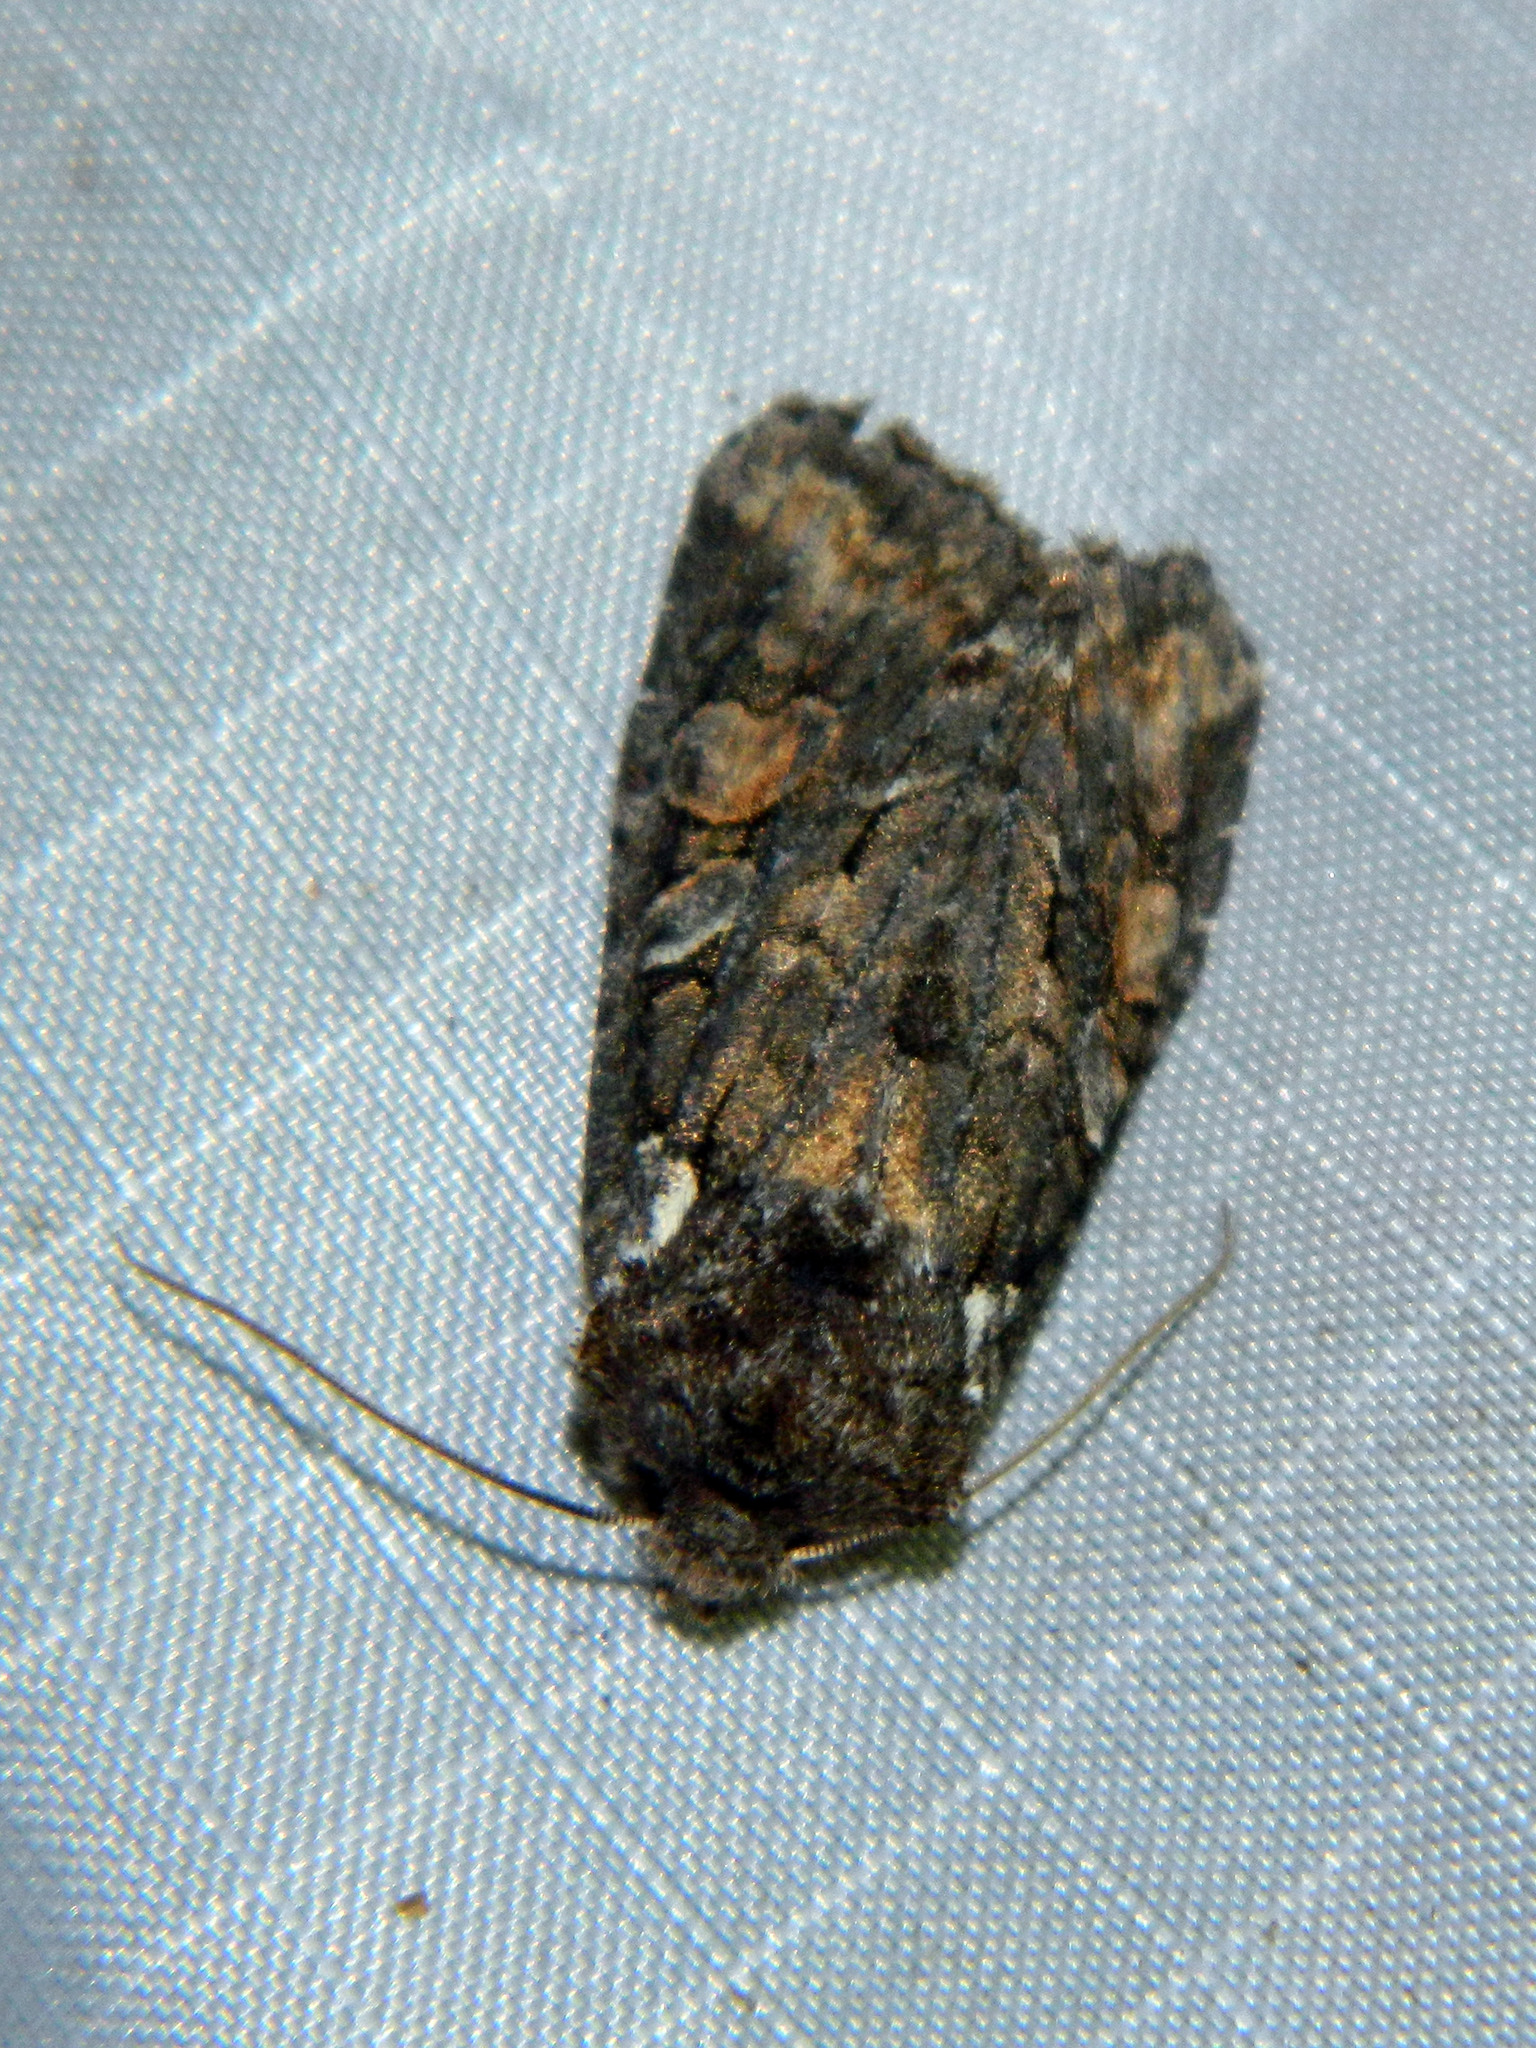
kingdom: Animalia
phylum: Arthropoda
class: Insecta
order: Lepidoptera
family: Noctuidae
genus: Lithophane
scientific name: Lithophane pexata
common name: Plush-naped pinion moth
